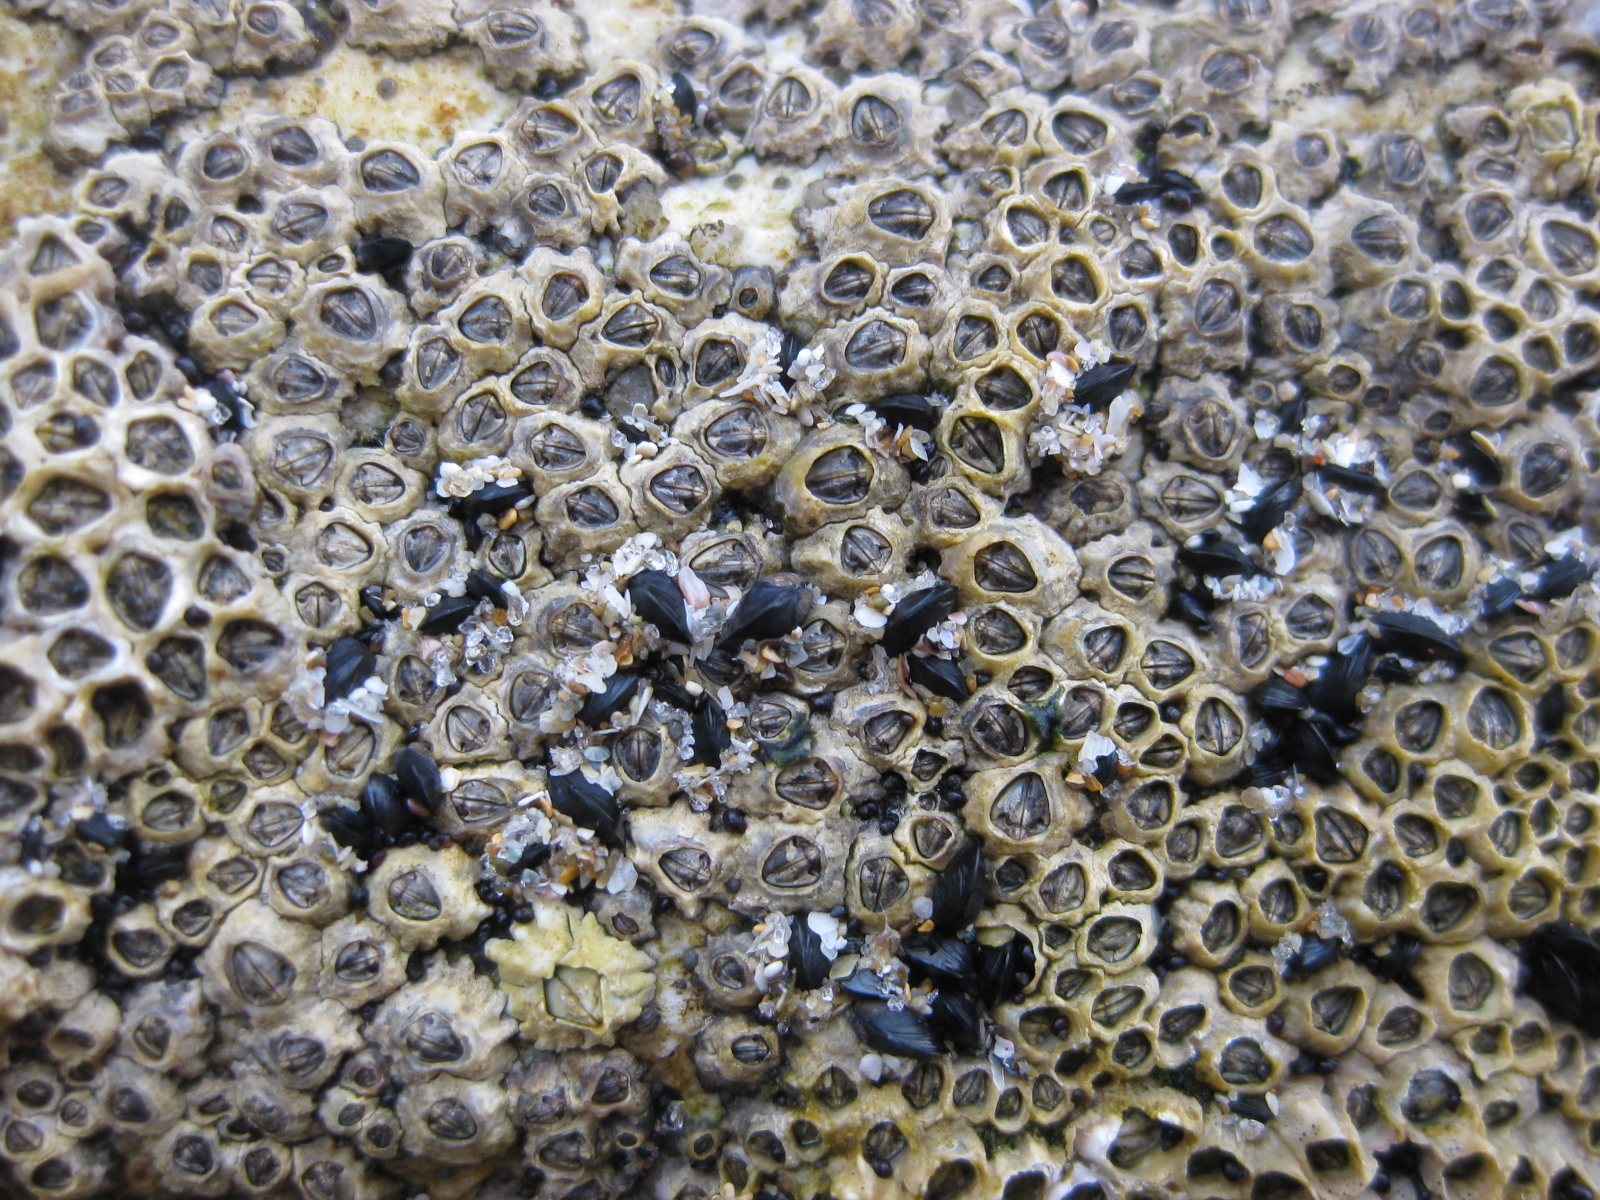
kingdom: Animalia
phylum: Arthropoda
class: Maxillopoda
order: Sessilia
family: Chthamalidae
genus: Chamaesipho
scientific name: Chamaesipho columna
